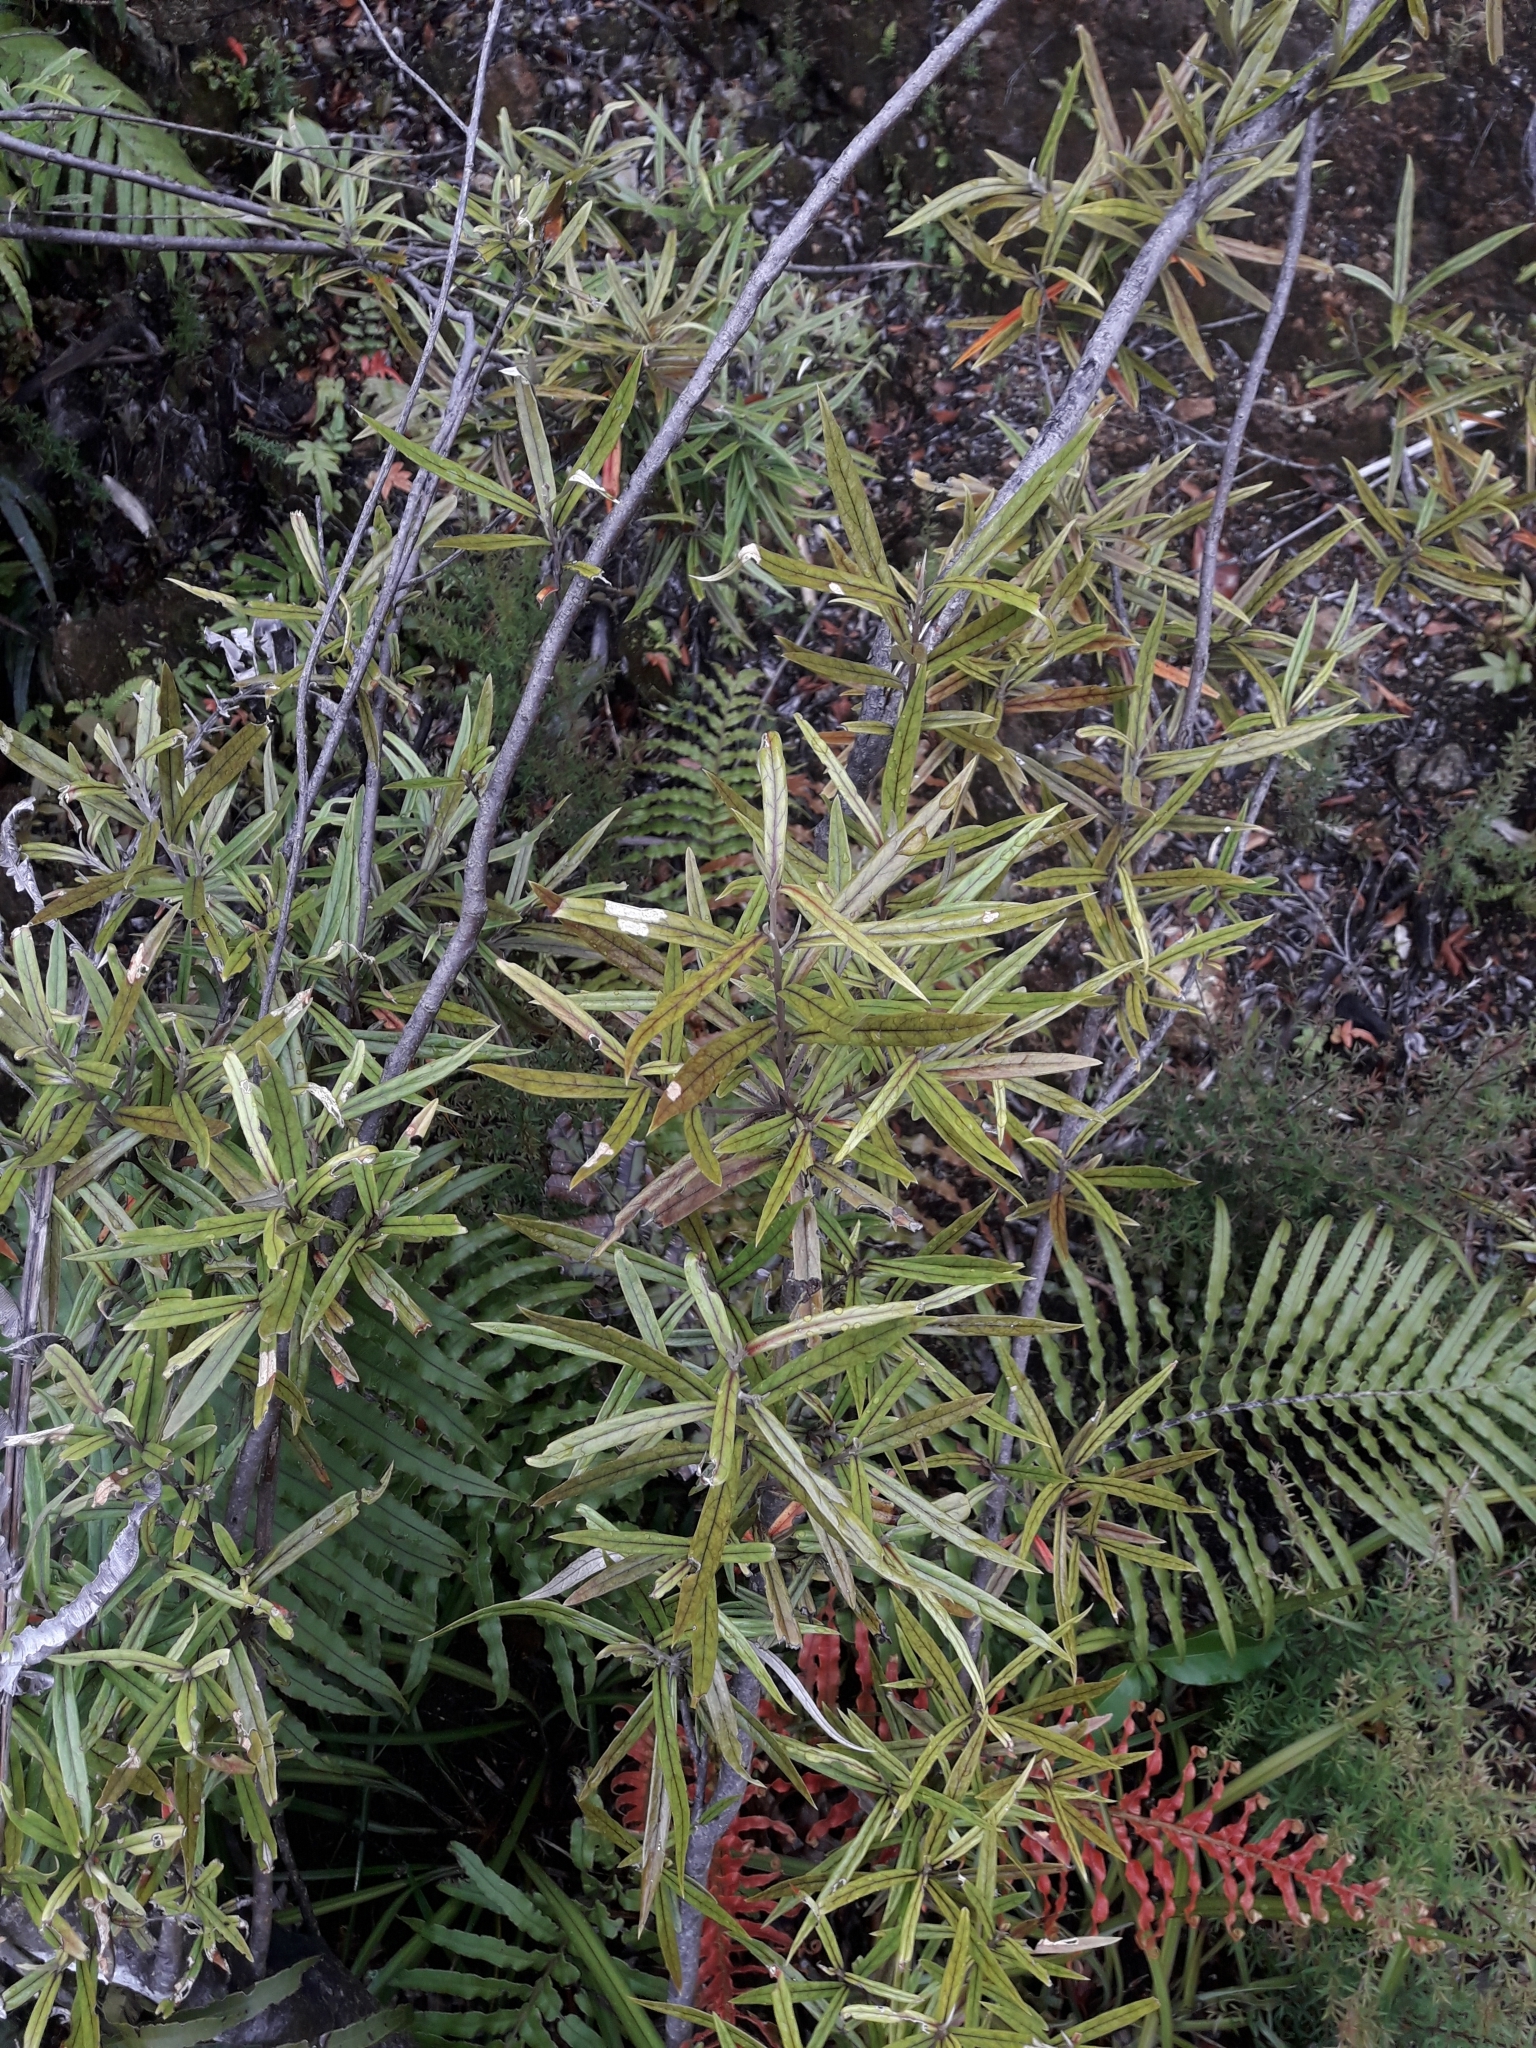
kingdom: Plantae
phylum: Tracheophyta
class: Magnoliopsida
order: Asterales
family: Argophyllaceae
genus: Corokia
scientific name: Corokia buddleioides
